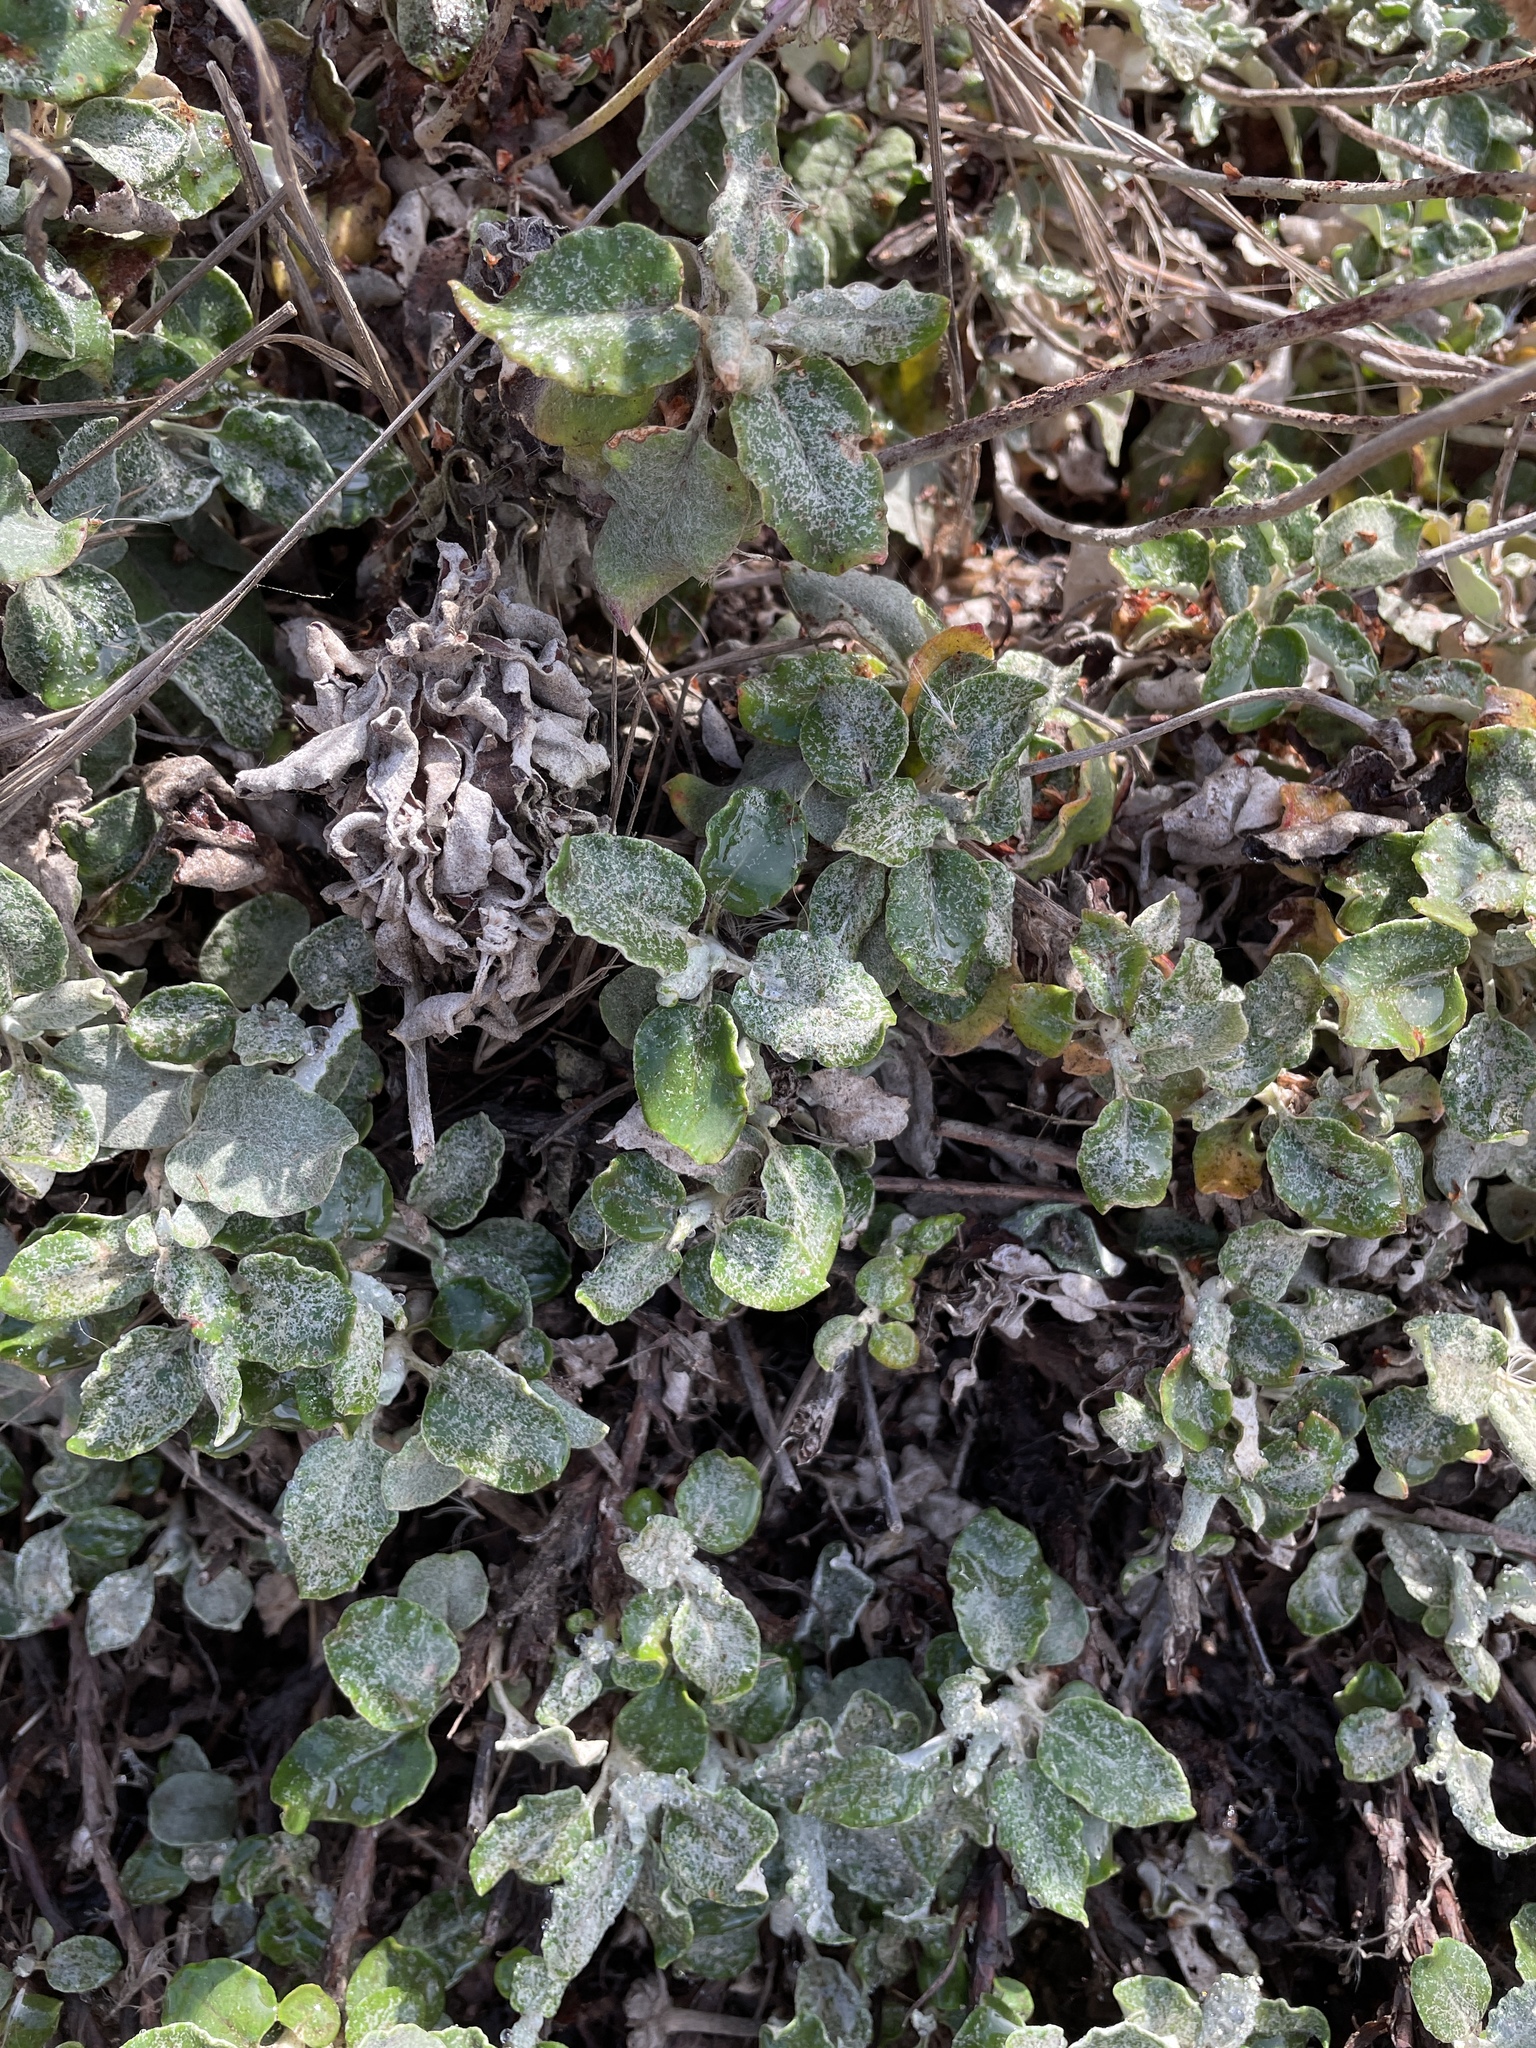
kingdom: Plantae
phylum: Tracheophyta
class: Magnoliopsida
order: Caryophyllales
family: Polygonaceae
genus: Eriogonum
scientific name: Eriogonum latifolium
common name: Seaside wild buckwheat
